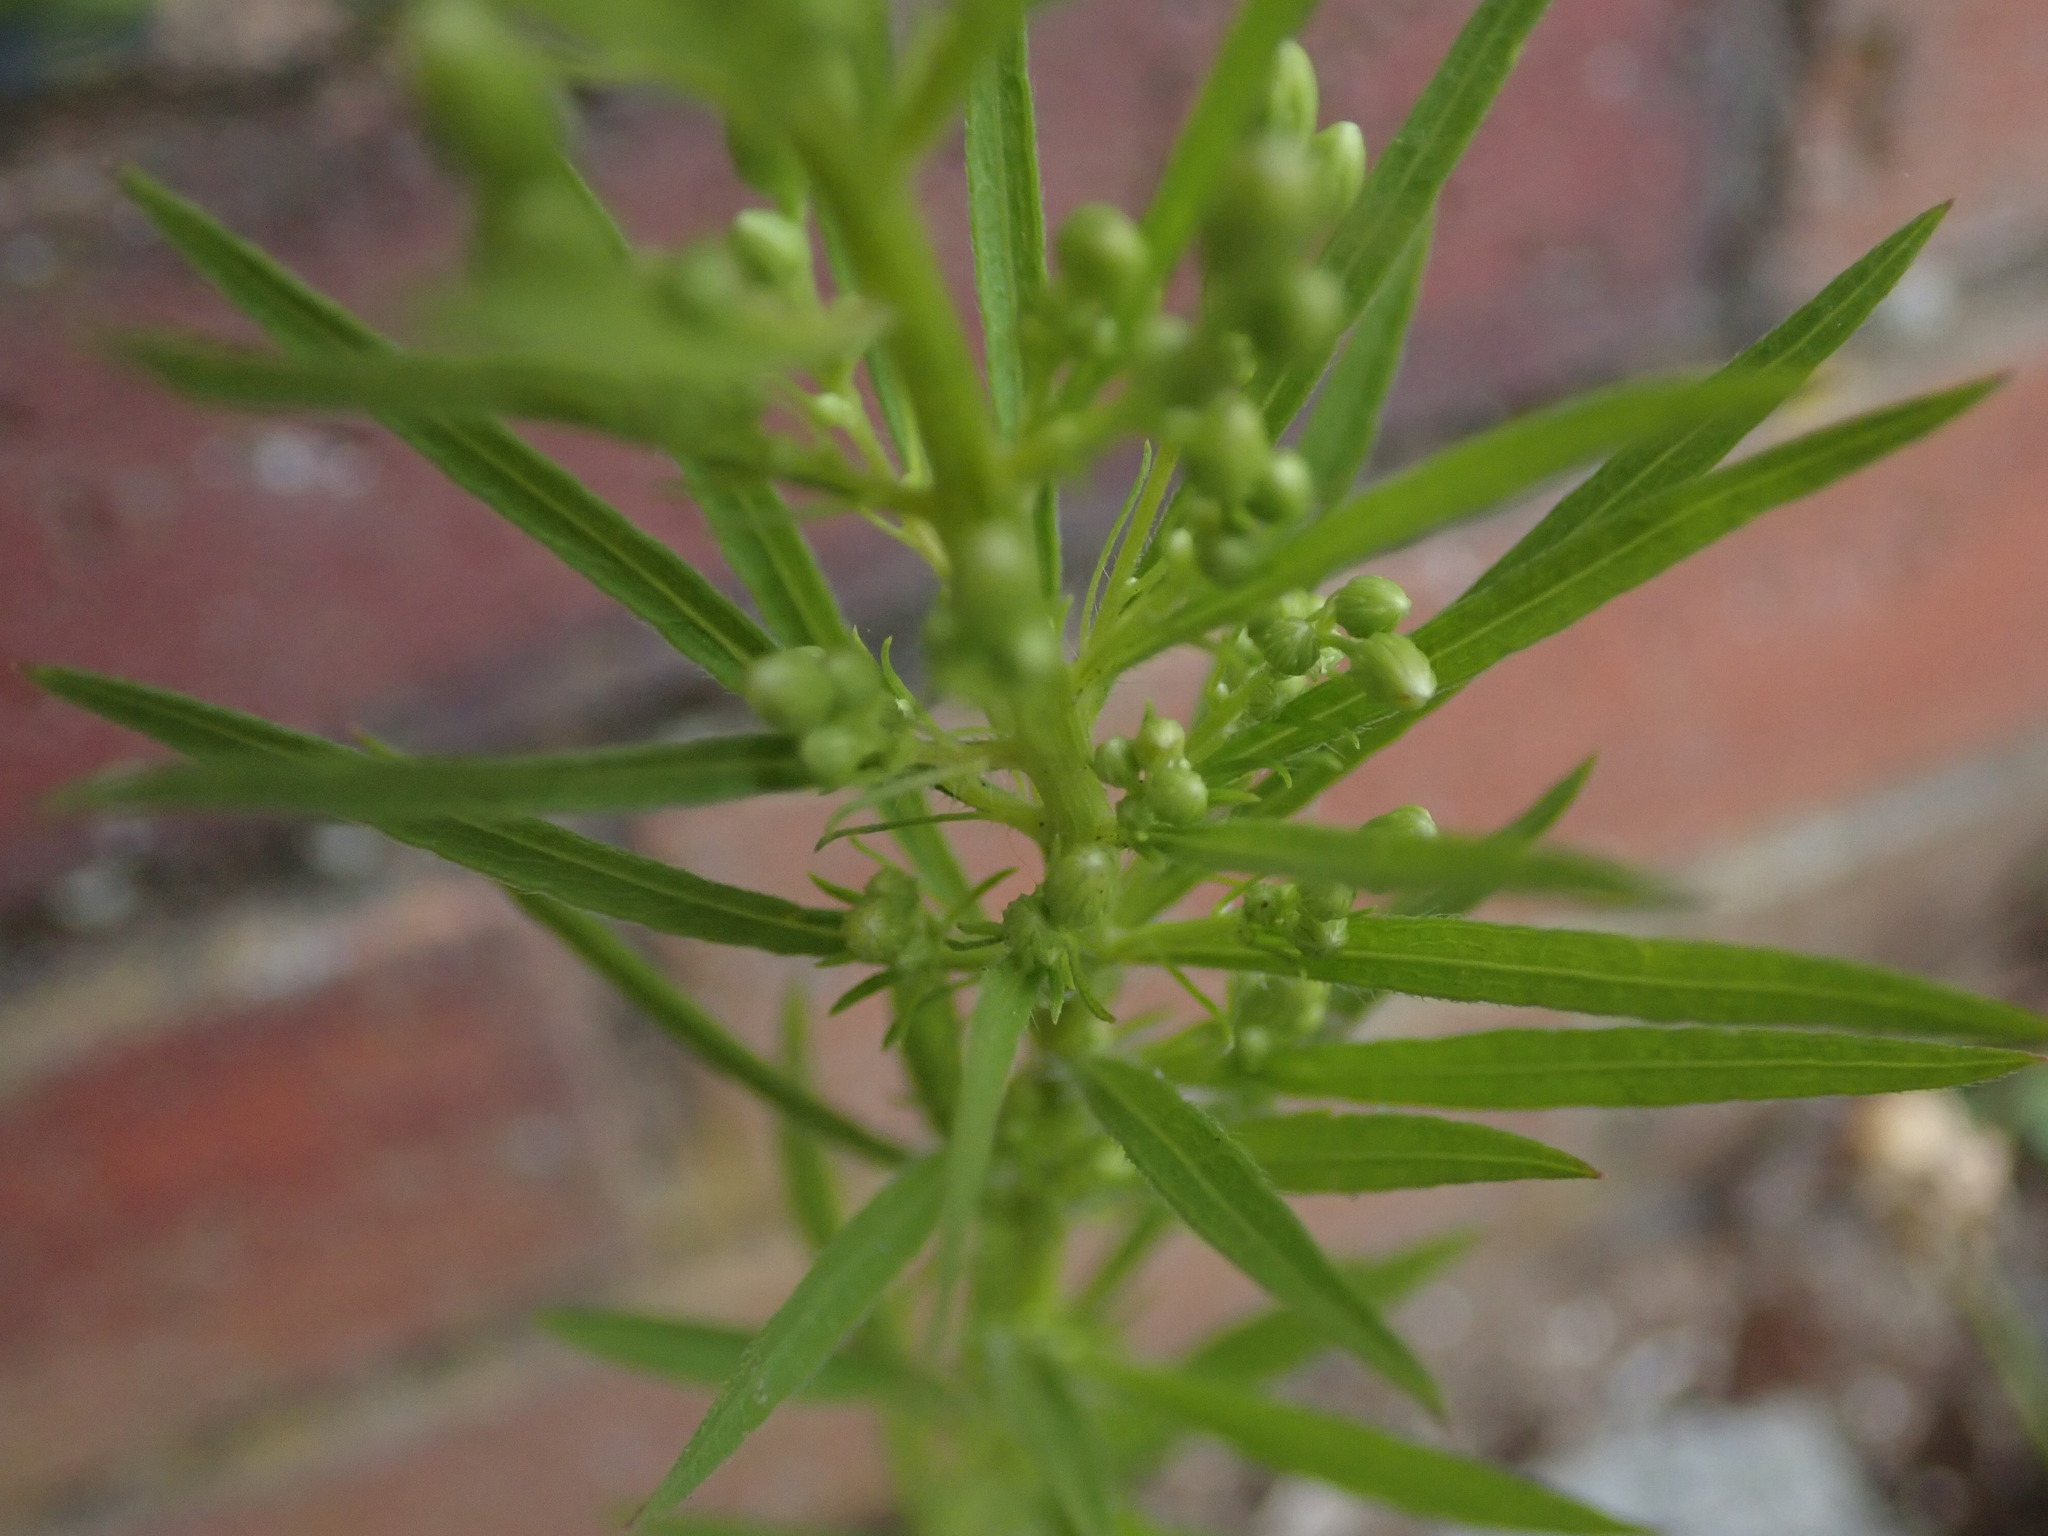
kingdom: Plantae
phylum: Tracheophyta
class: Magnoliopsida
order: Asterales
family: Asteraceae
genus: Erigeron
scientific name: Erigeron canadensis
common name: Canadian fleabane
